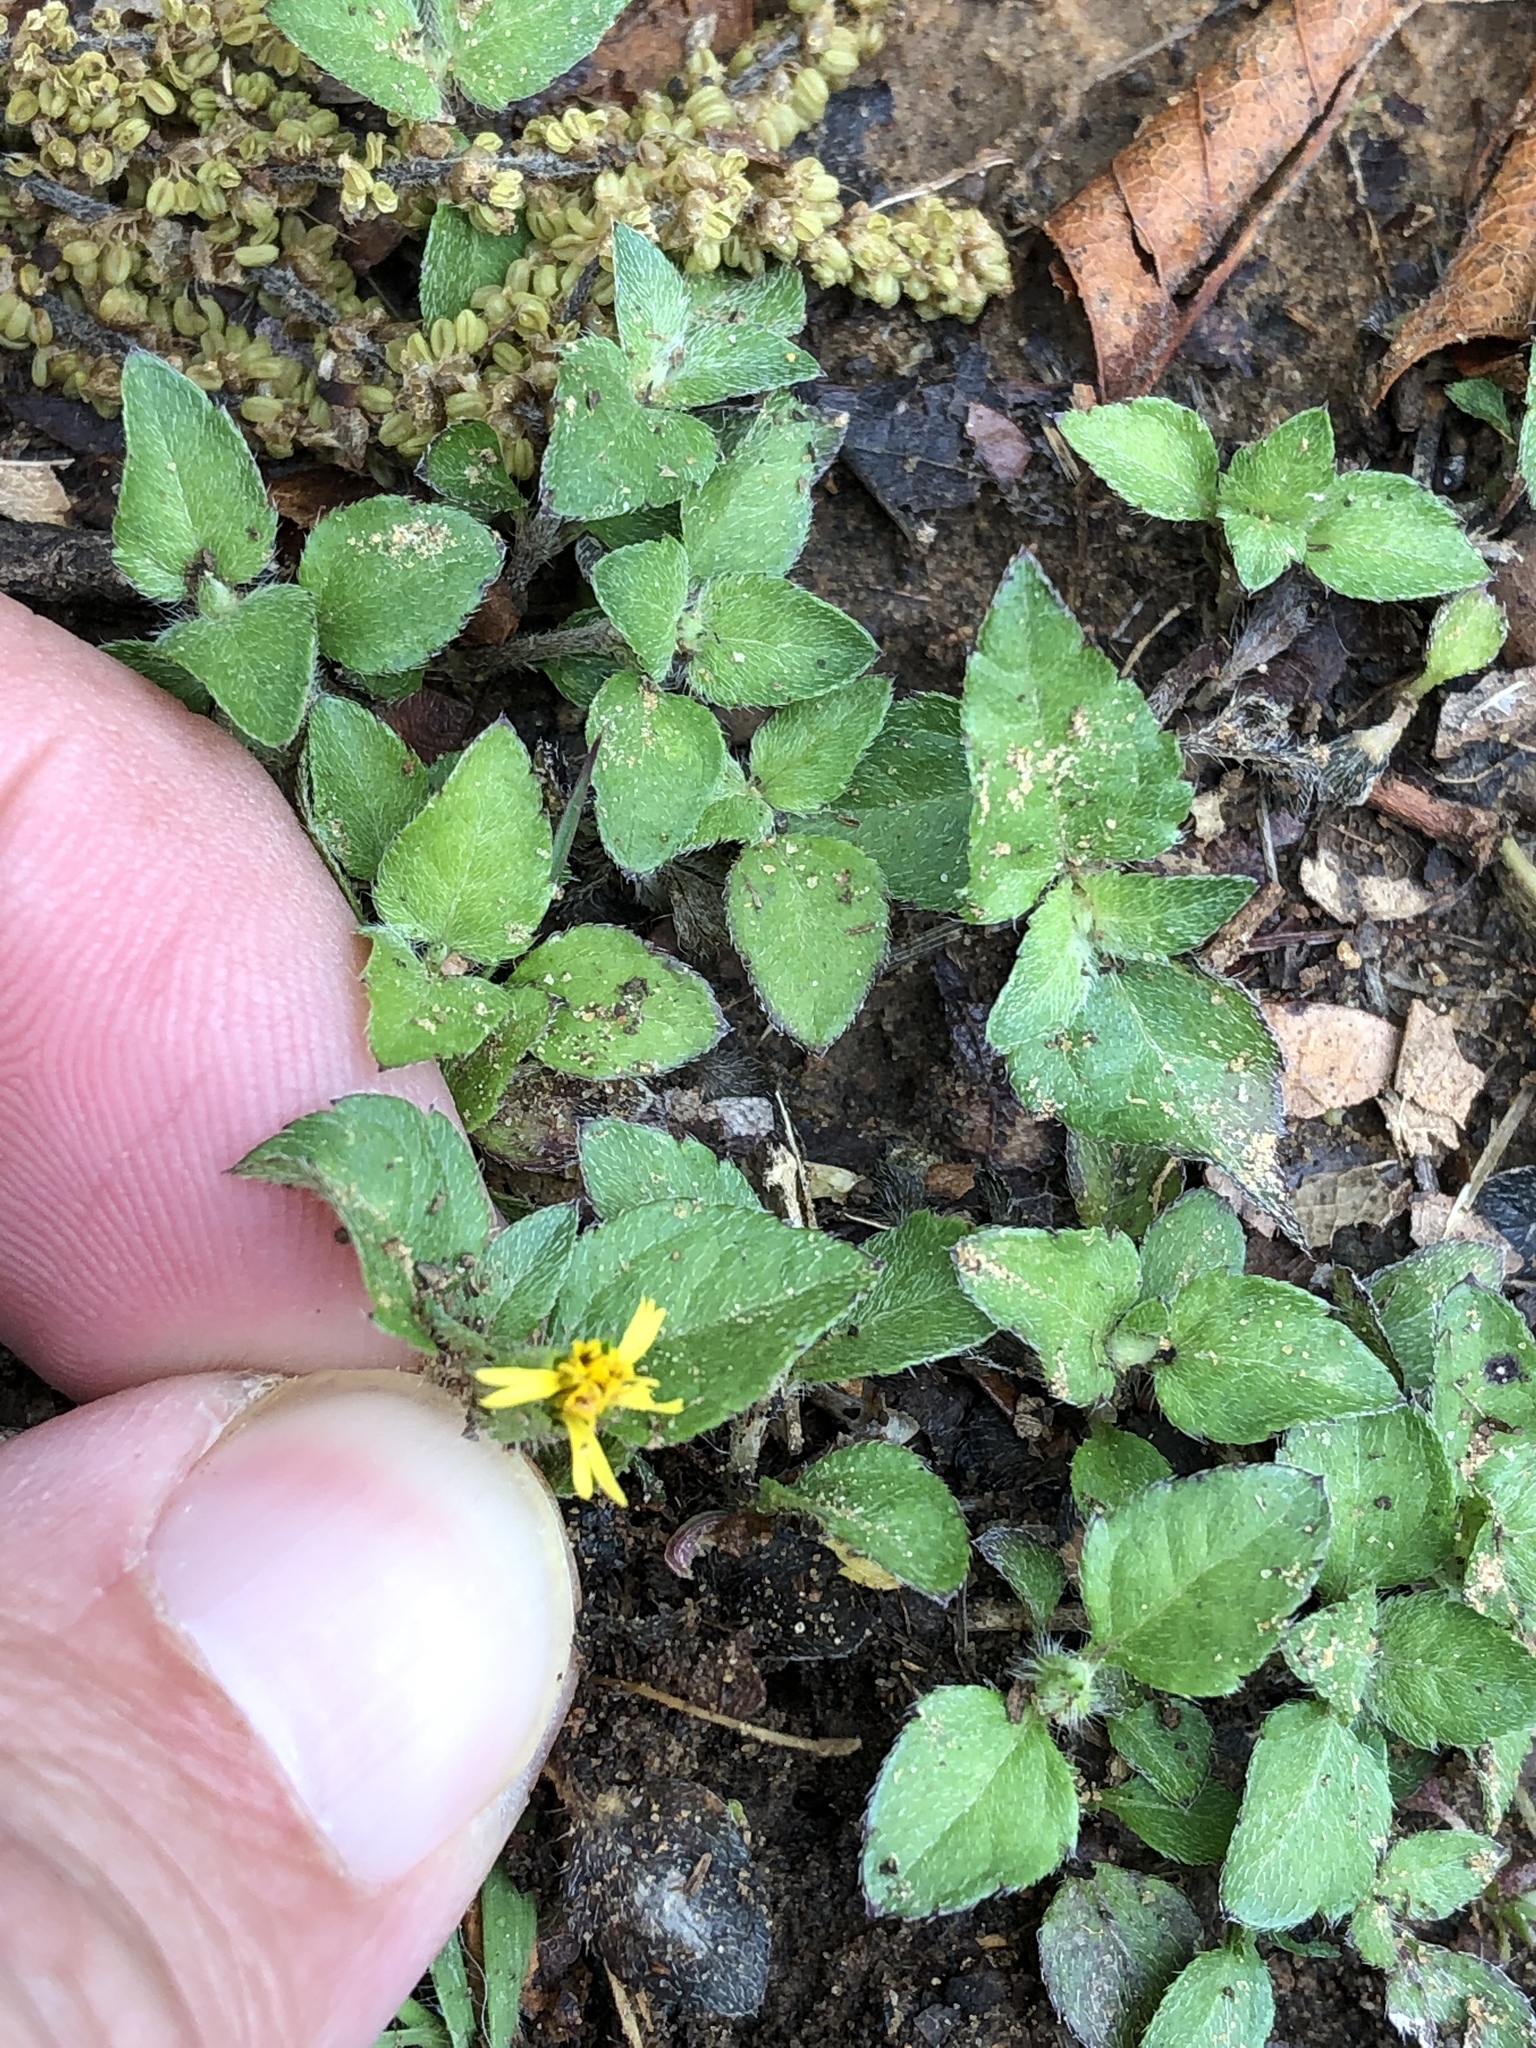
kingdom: Plantae
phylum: Tracheophyta
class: Magnoliopsida
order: Asterales
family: Asteraceae
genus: Calyptocarpus
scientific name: Calyptocarpus vialis
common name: Straggler daisy
